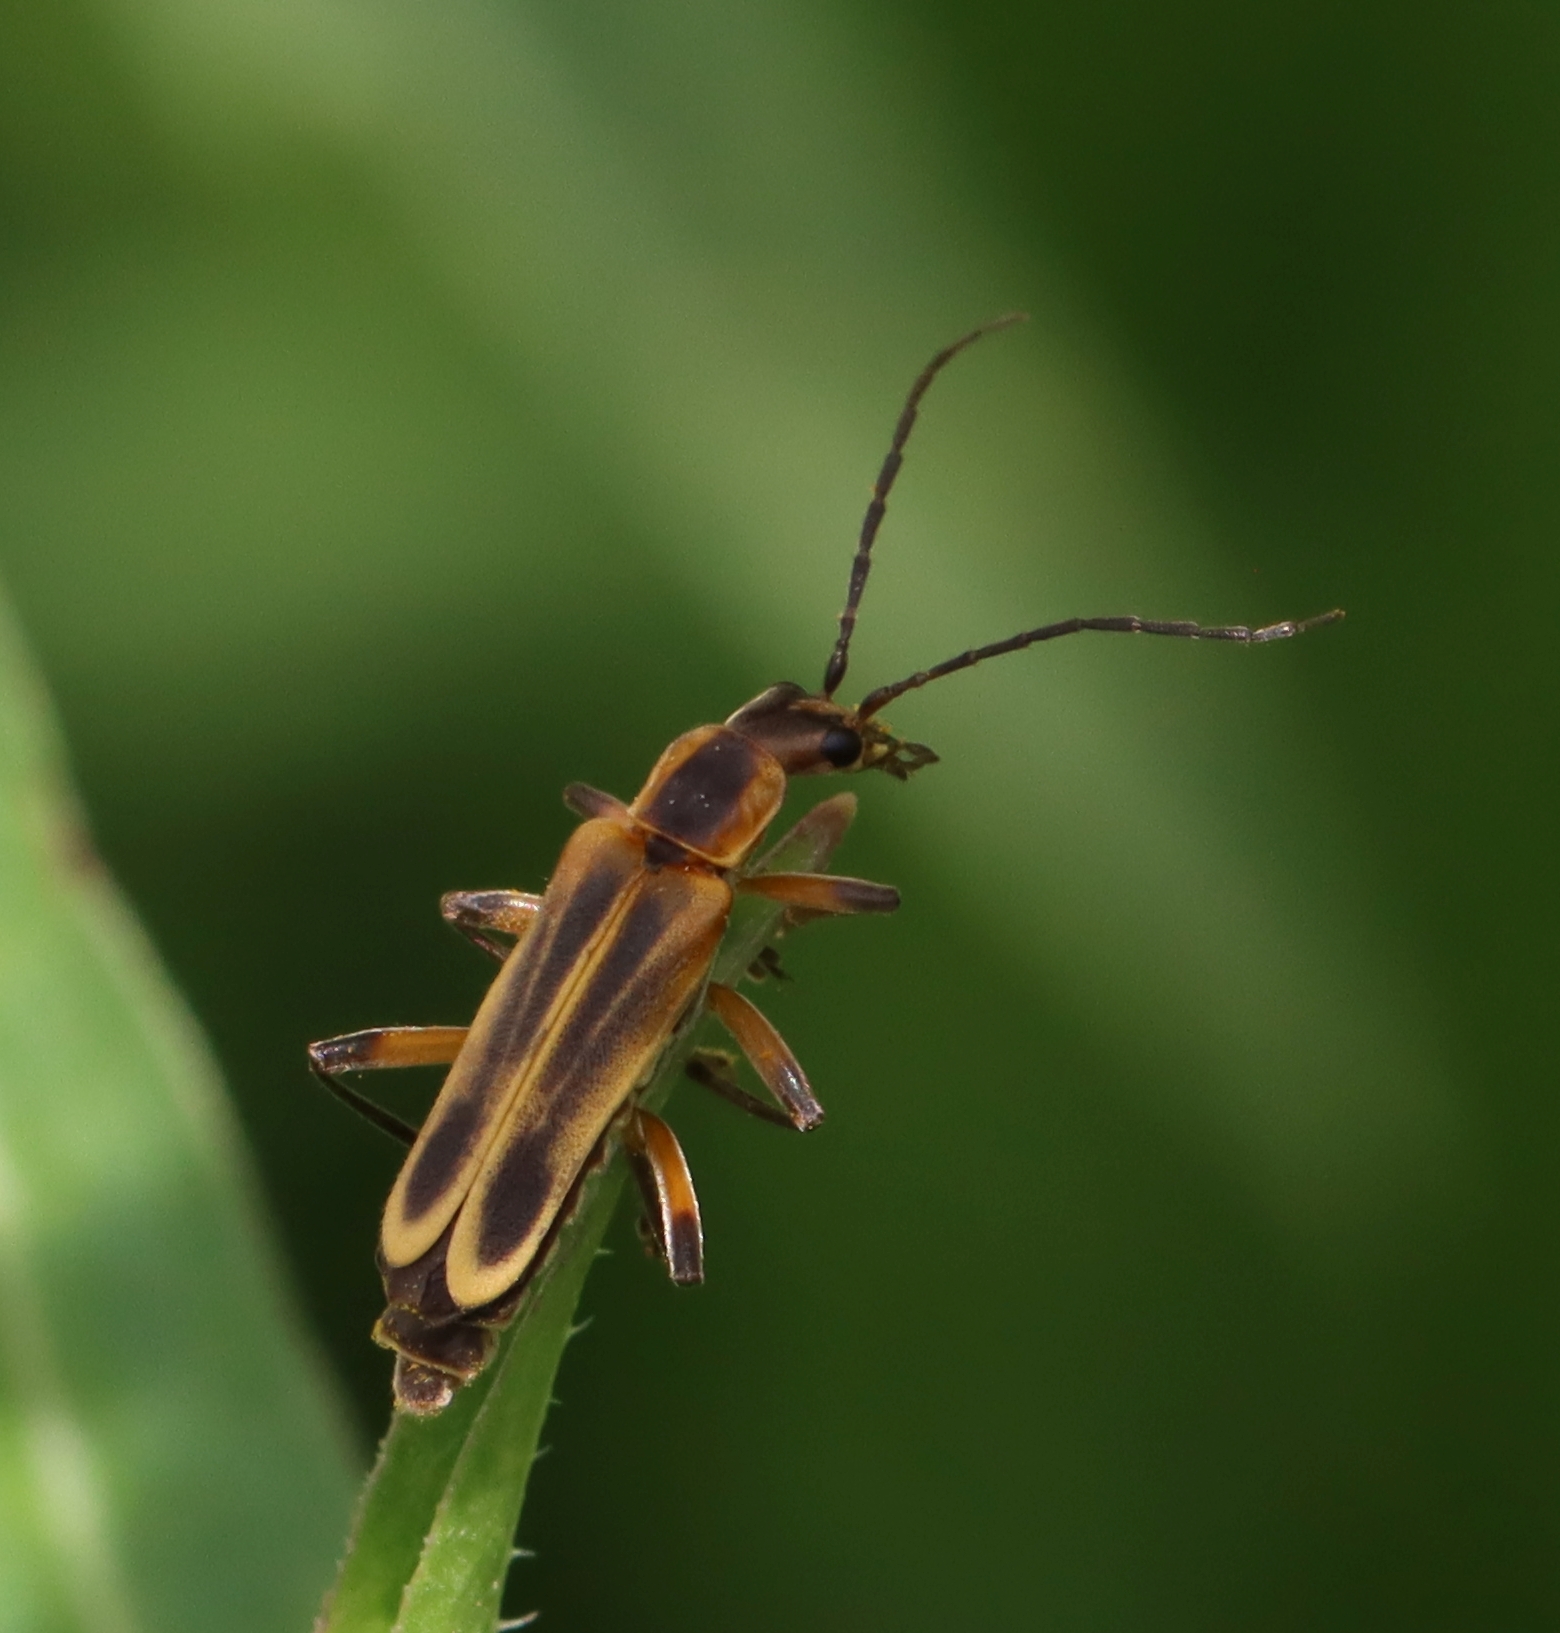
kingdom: Animalia
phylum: Arthropoda
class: Insecta
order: Coleoptera
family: Cantharidae
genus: Chauliognathus
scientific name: Chauliognathus marginatus
